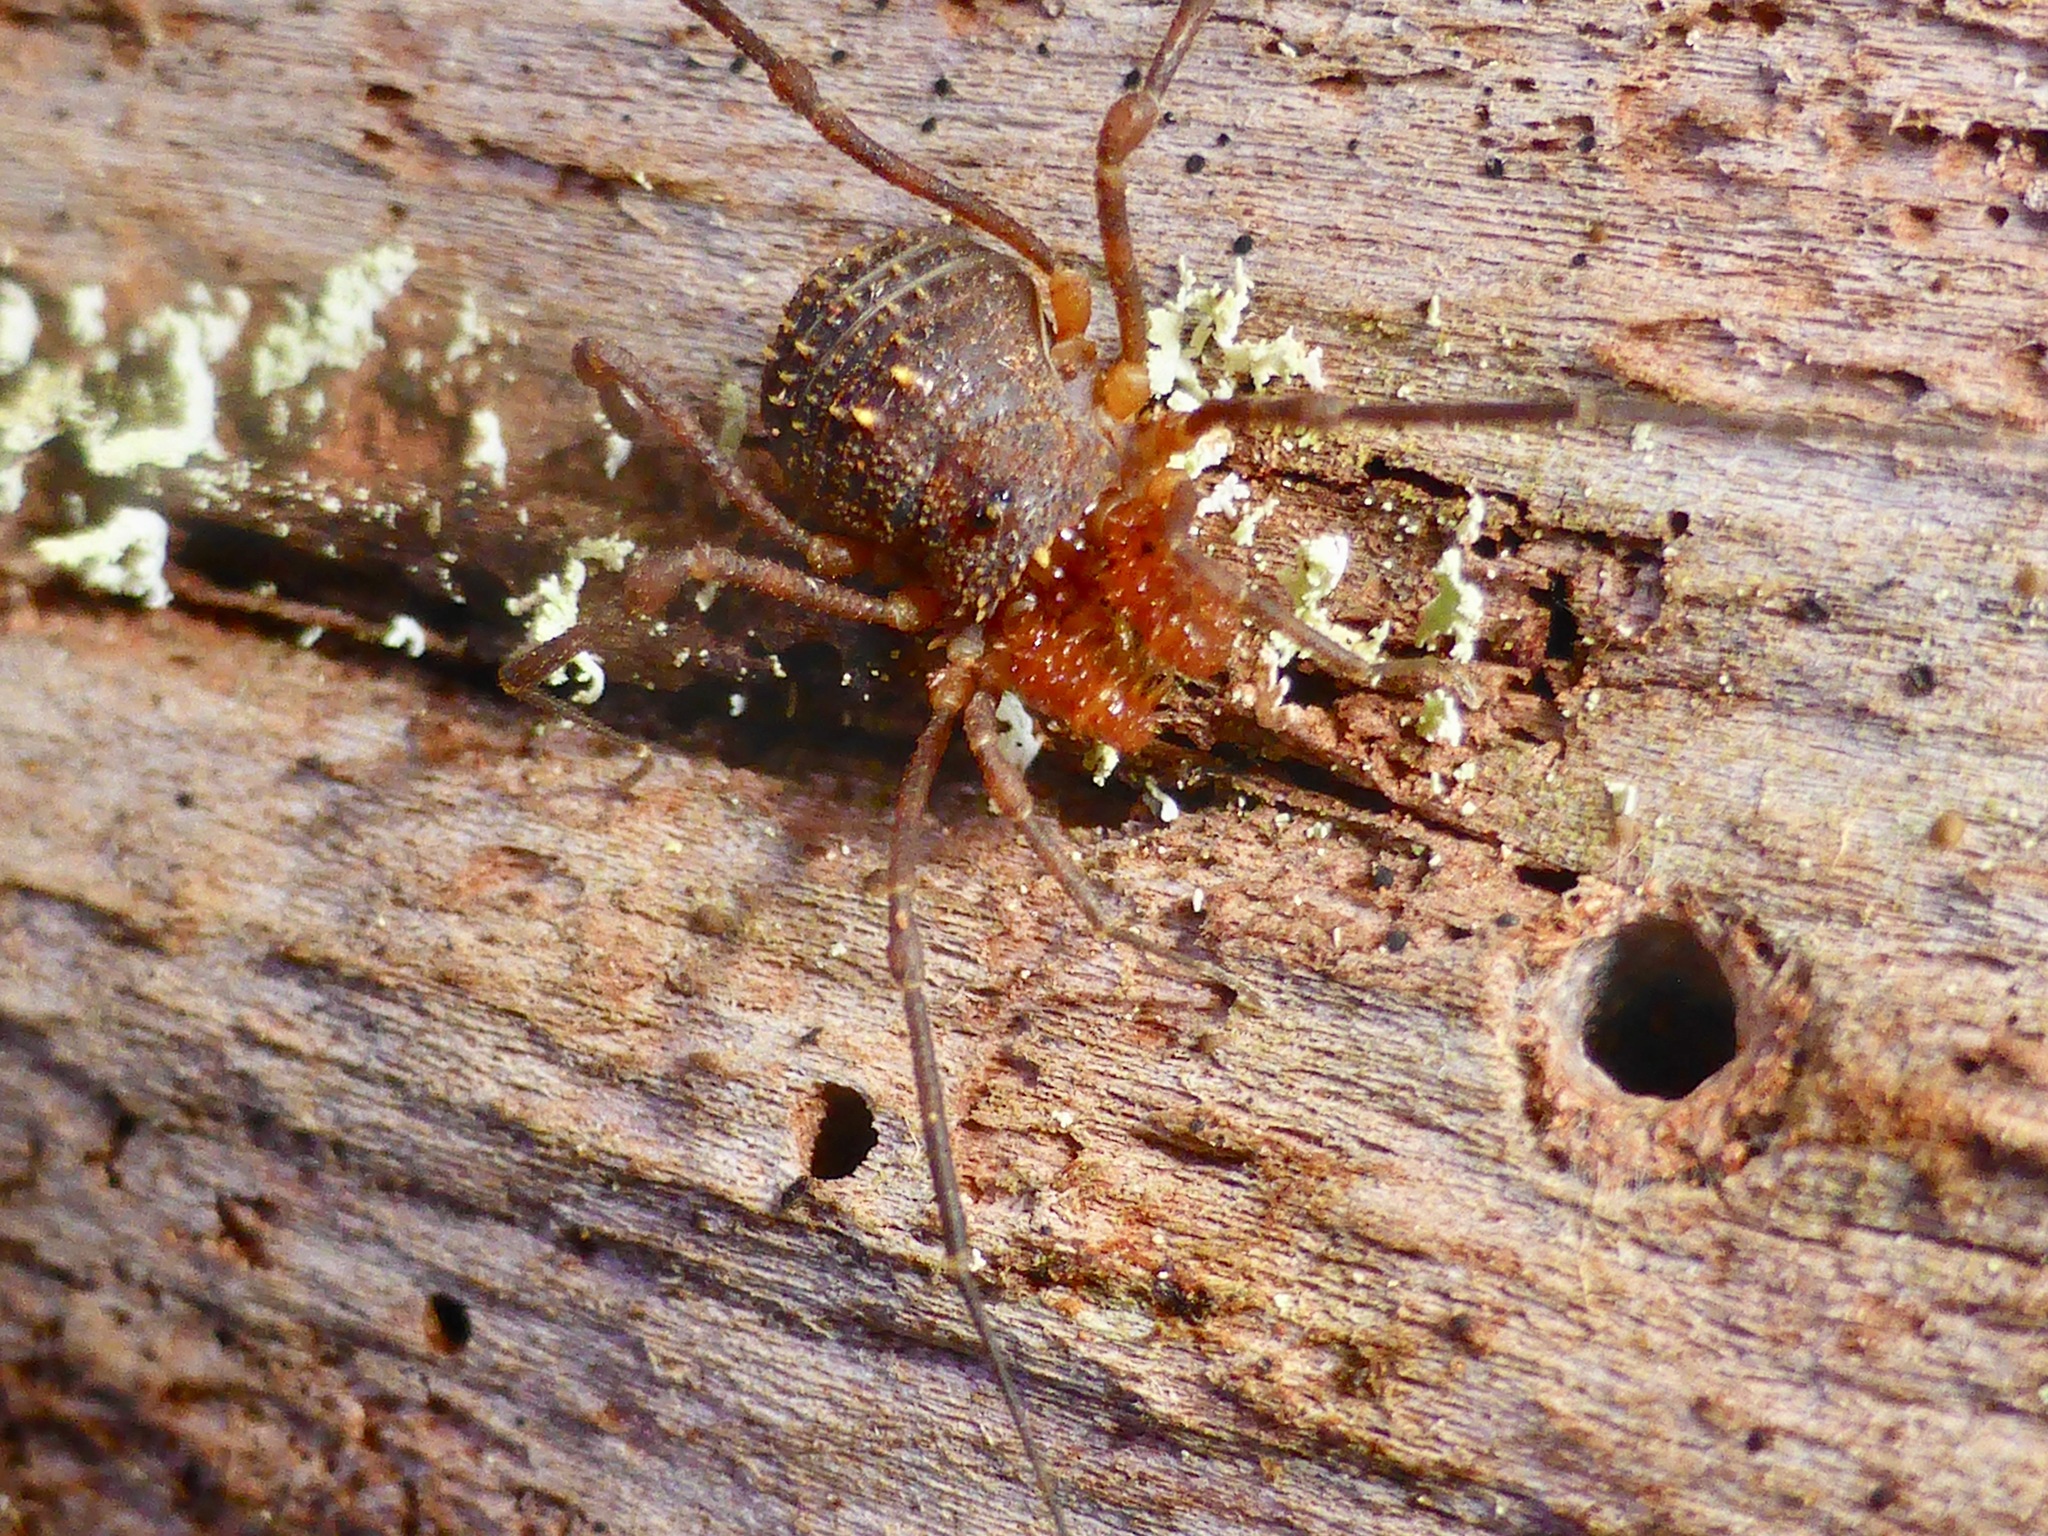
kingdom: Animalia
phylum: Arthropoda
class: Arachnida
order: Opiliones
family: Triaenonychidae
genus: Prasma
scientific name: Prasma tuberculata
